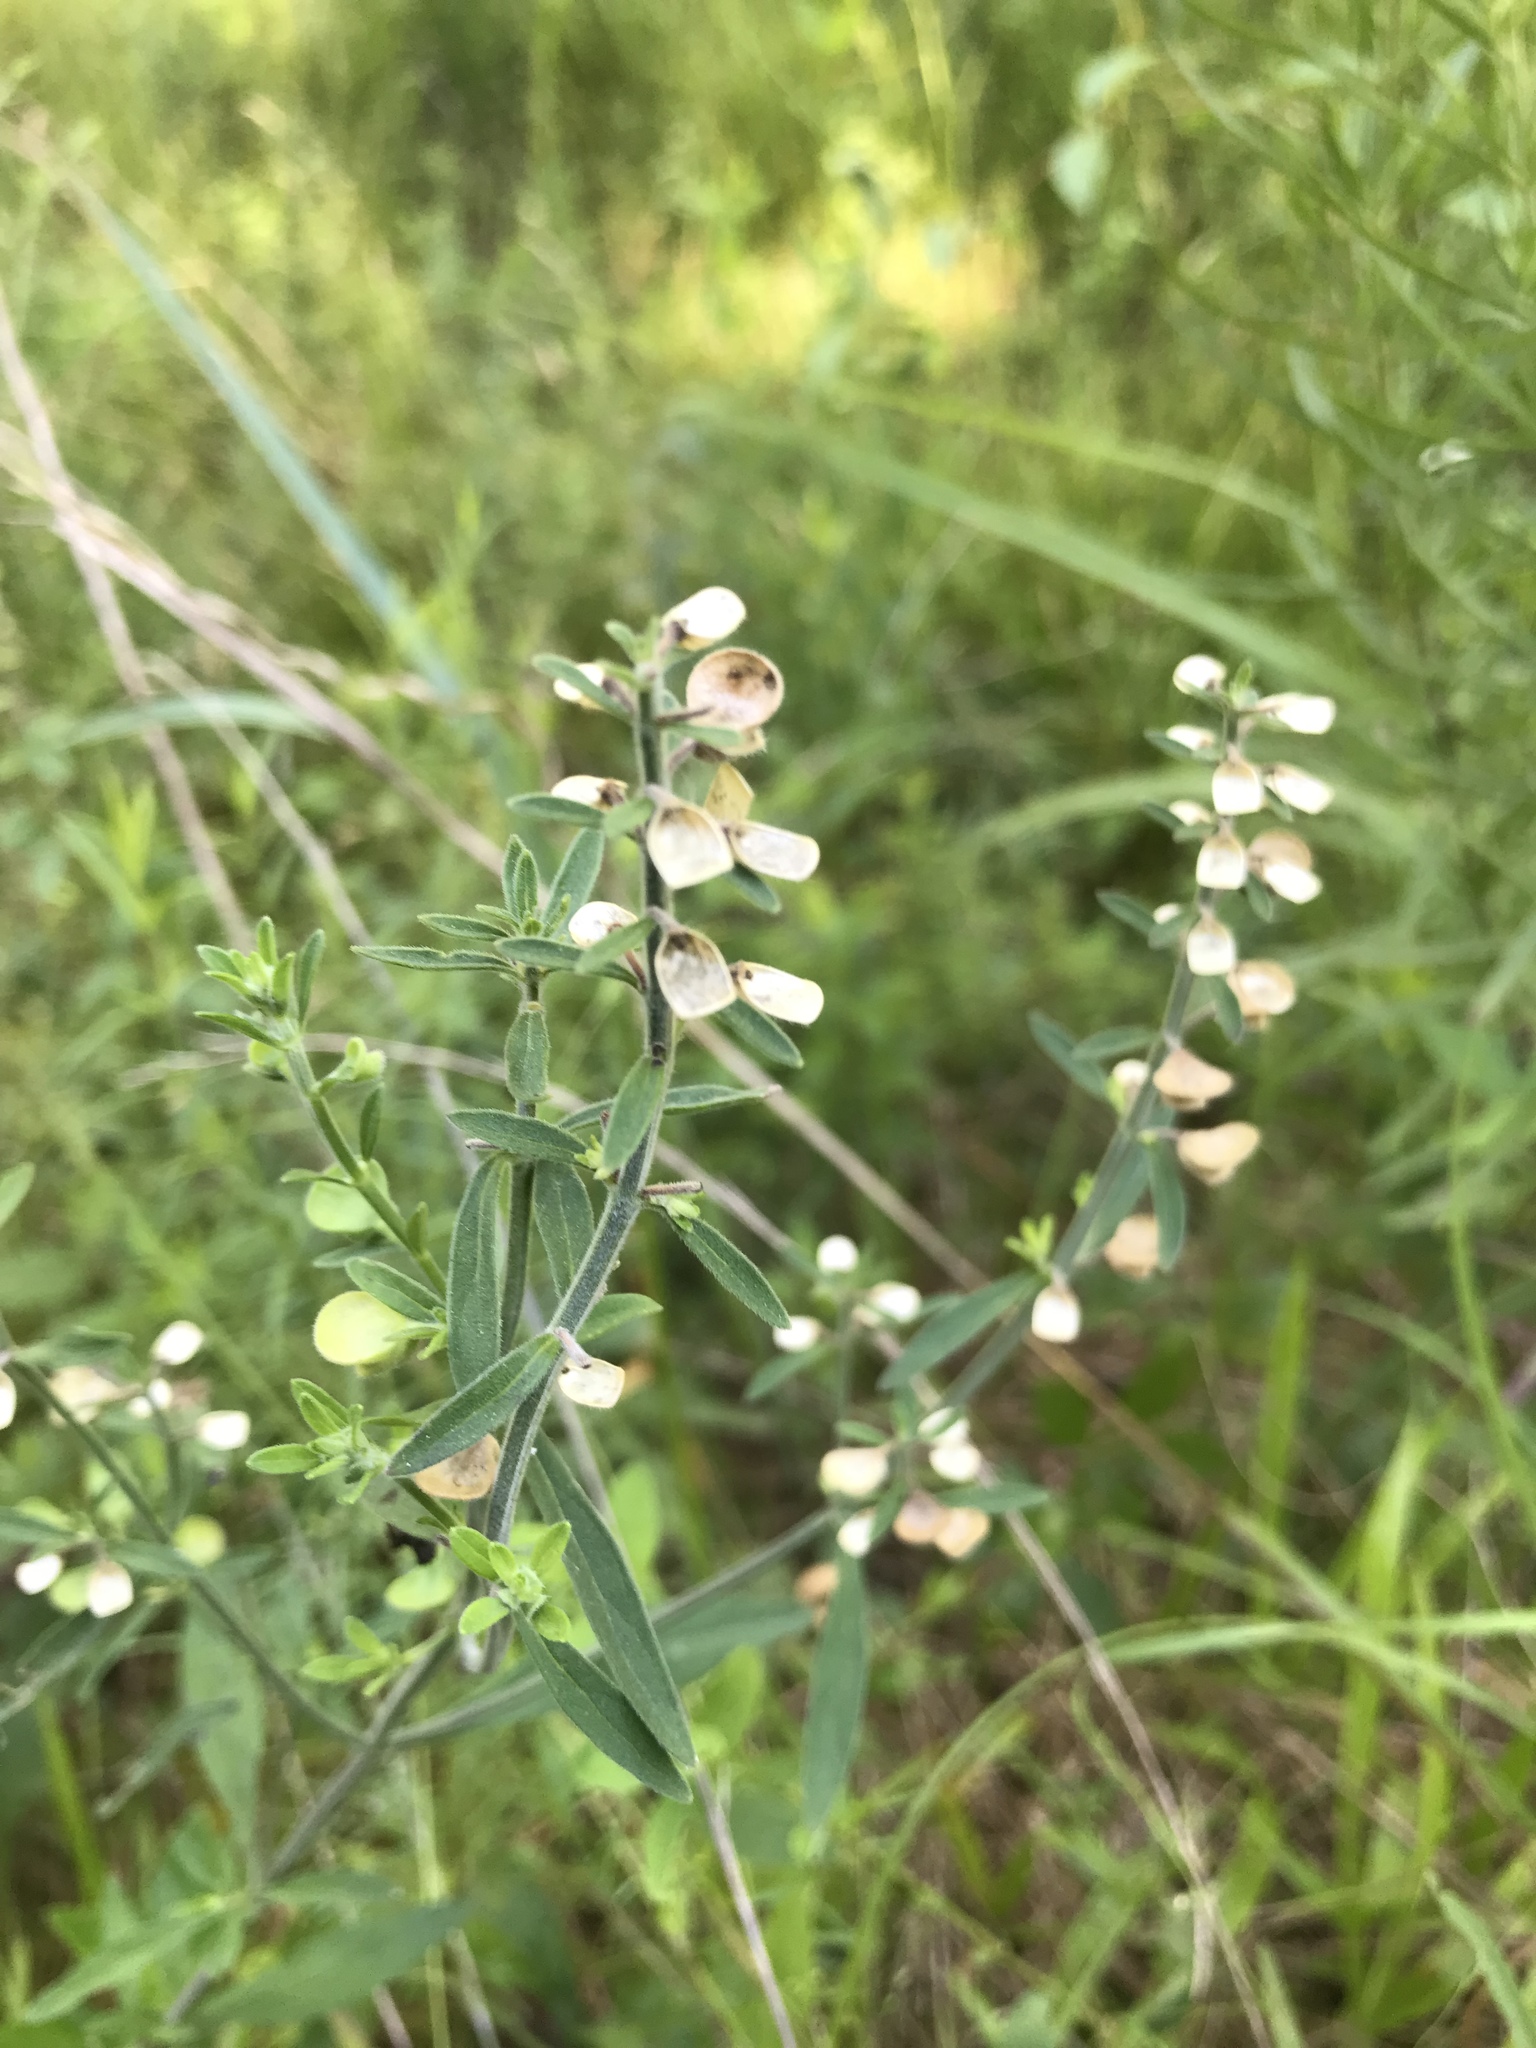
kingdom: Plantae
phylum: Tracheophyta
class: Magnoliopsida
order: Lamiales
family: Lamiaceae
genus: Scutellaria
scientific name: Scutellaria integrifolia
